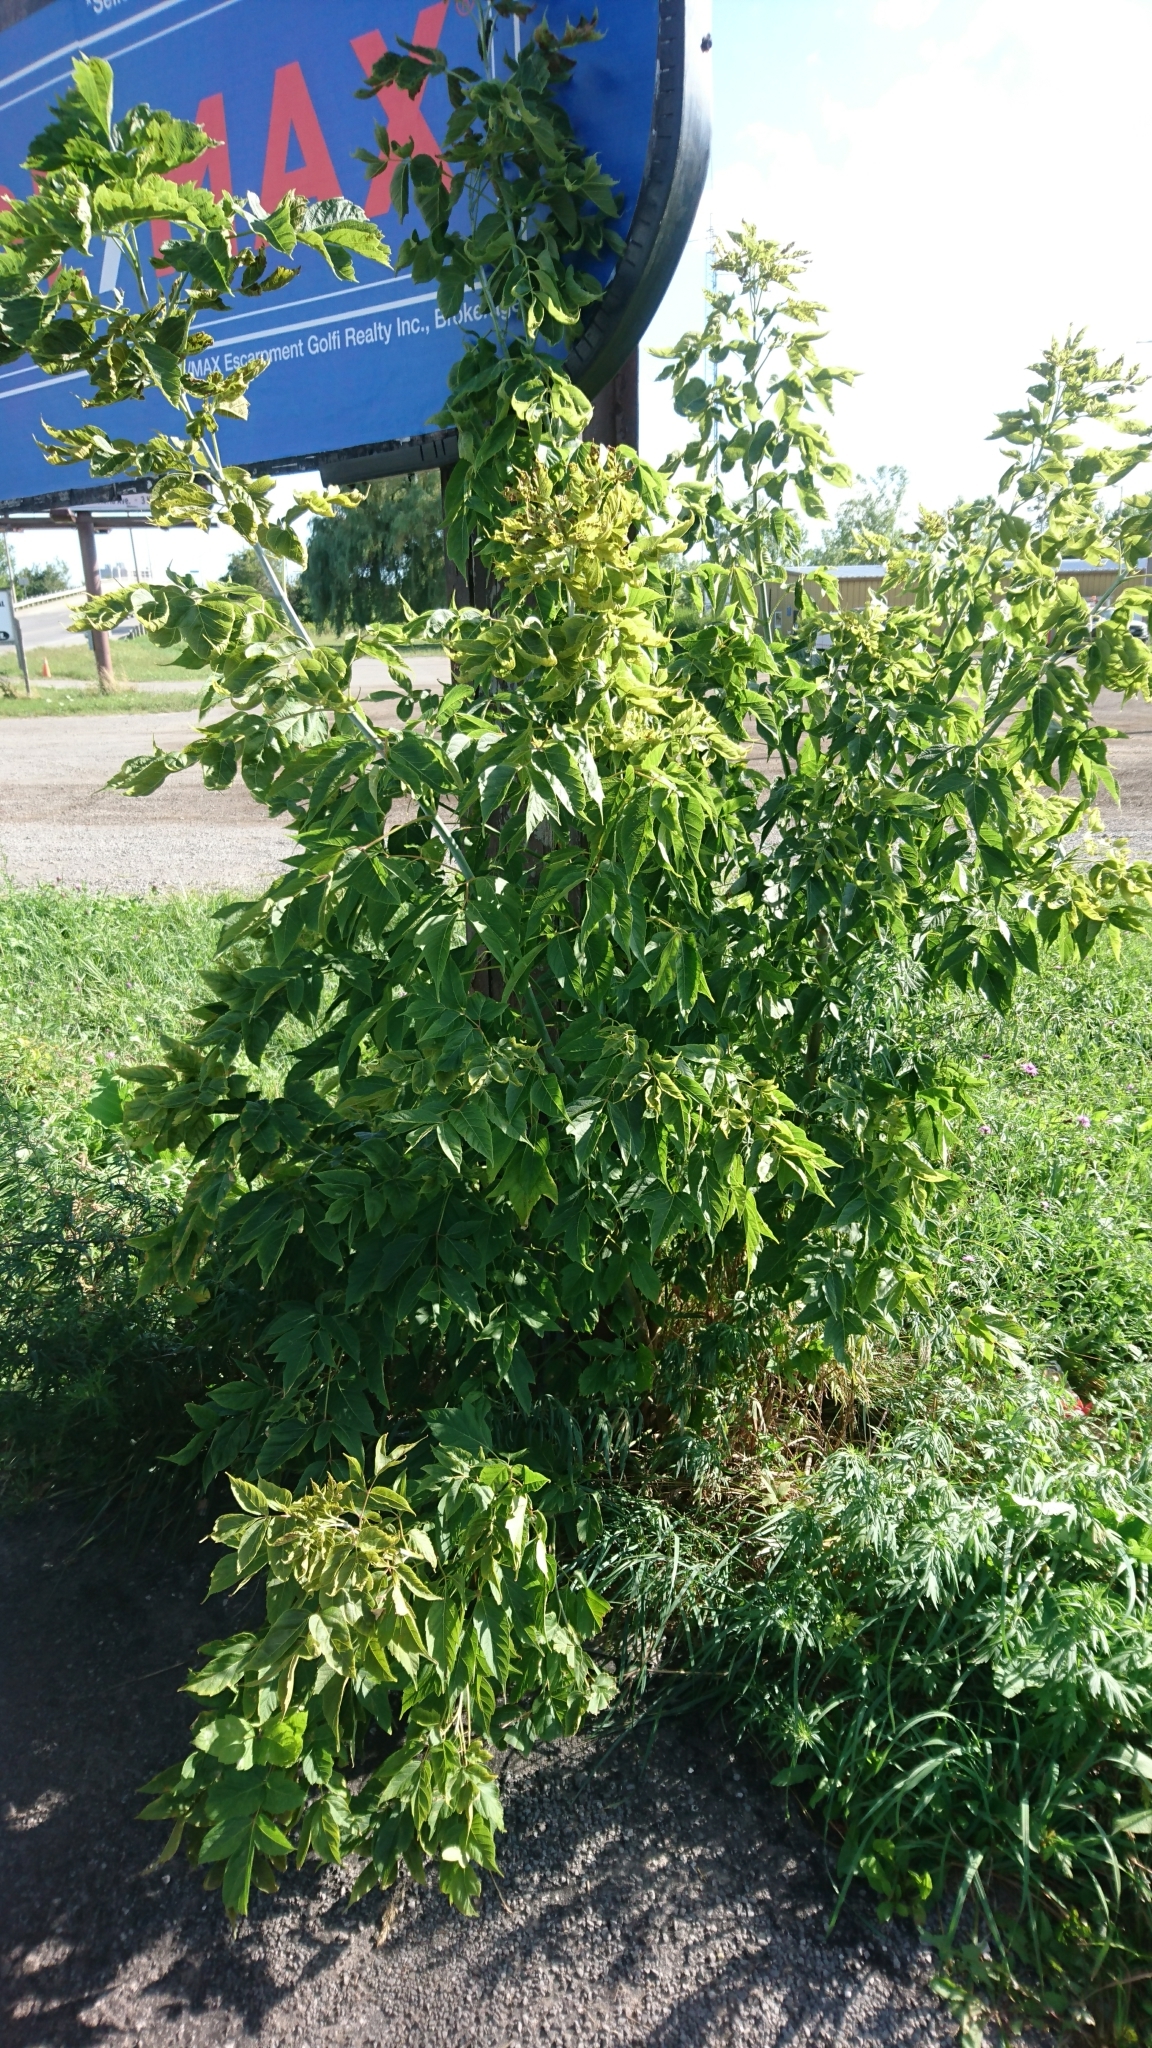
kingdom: Plantae
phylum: Tracheophyta
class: Magnoliopsida
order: Sapindales
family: Sapindaceae
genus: Acer
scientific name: Acer negundo
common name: Ashleaf maple
